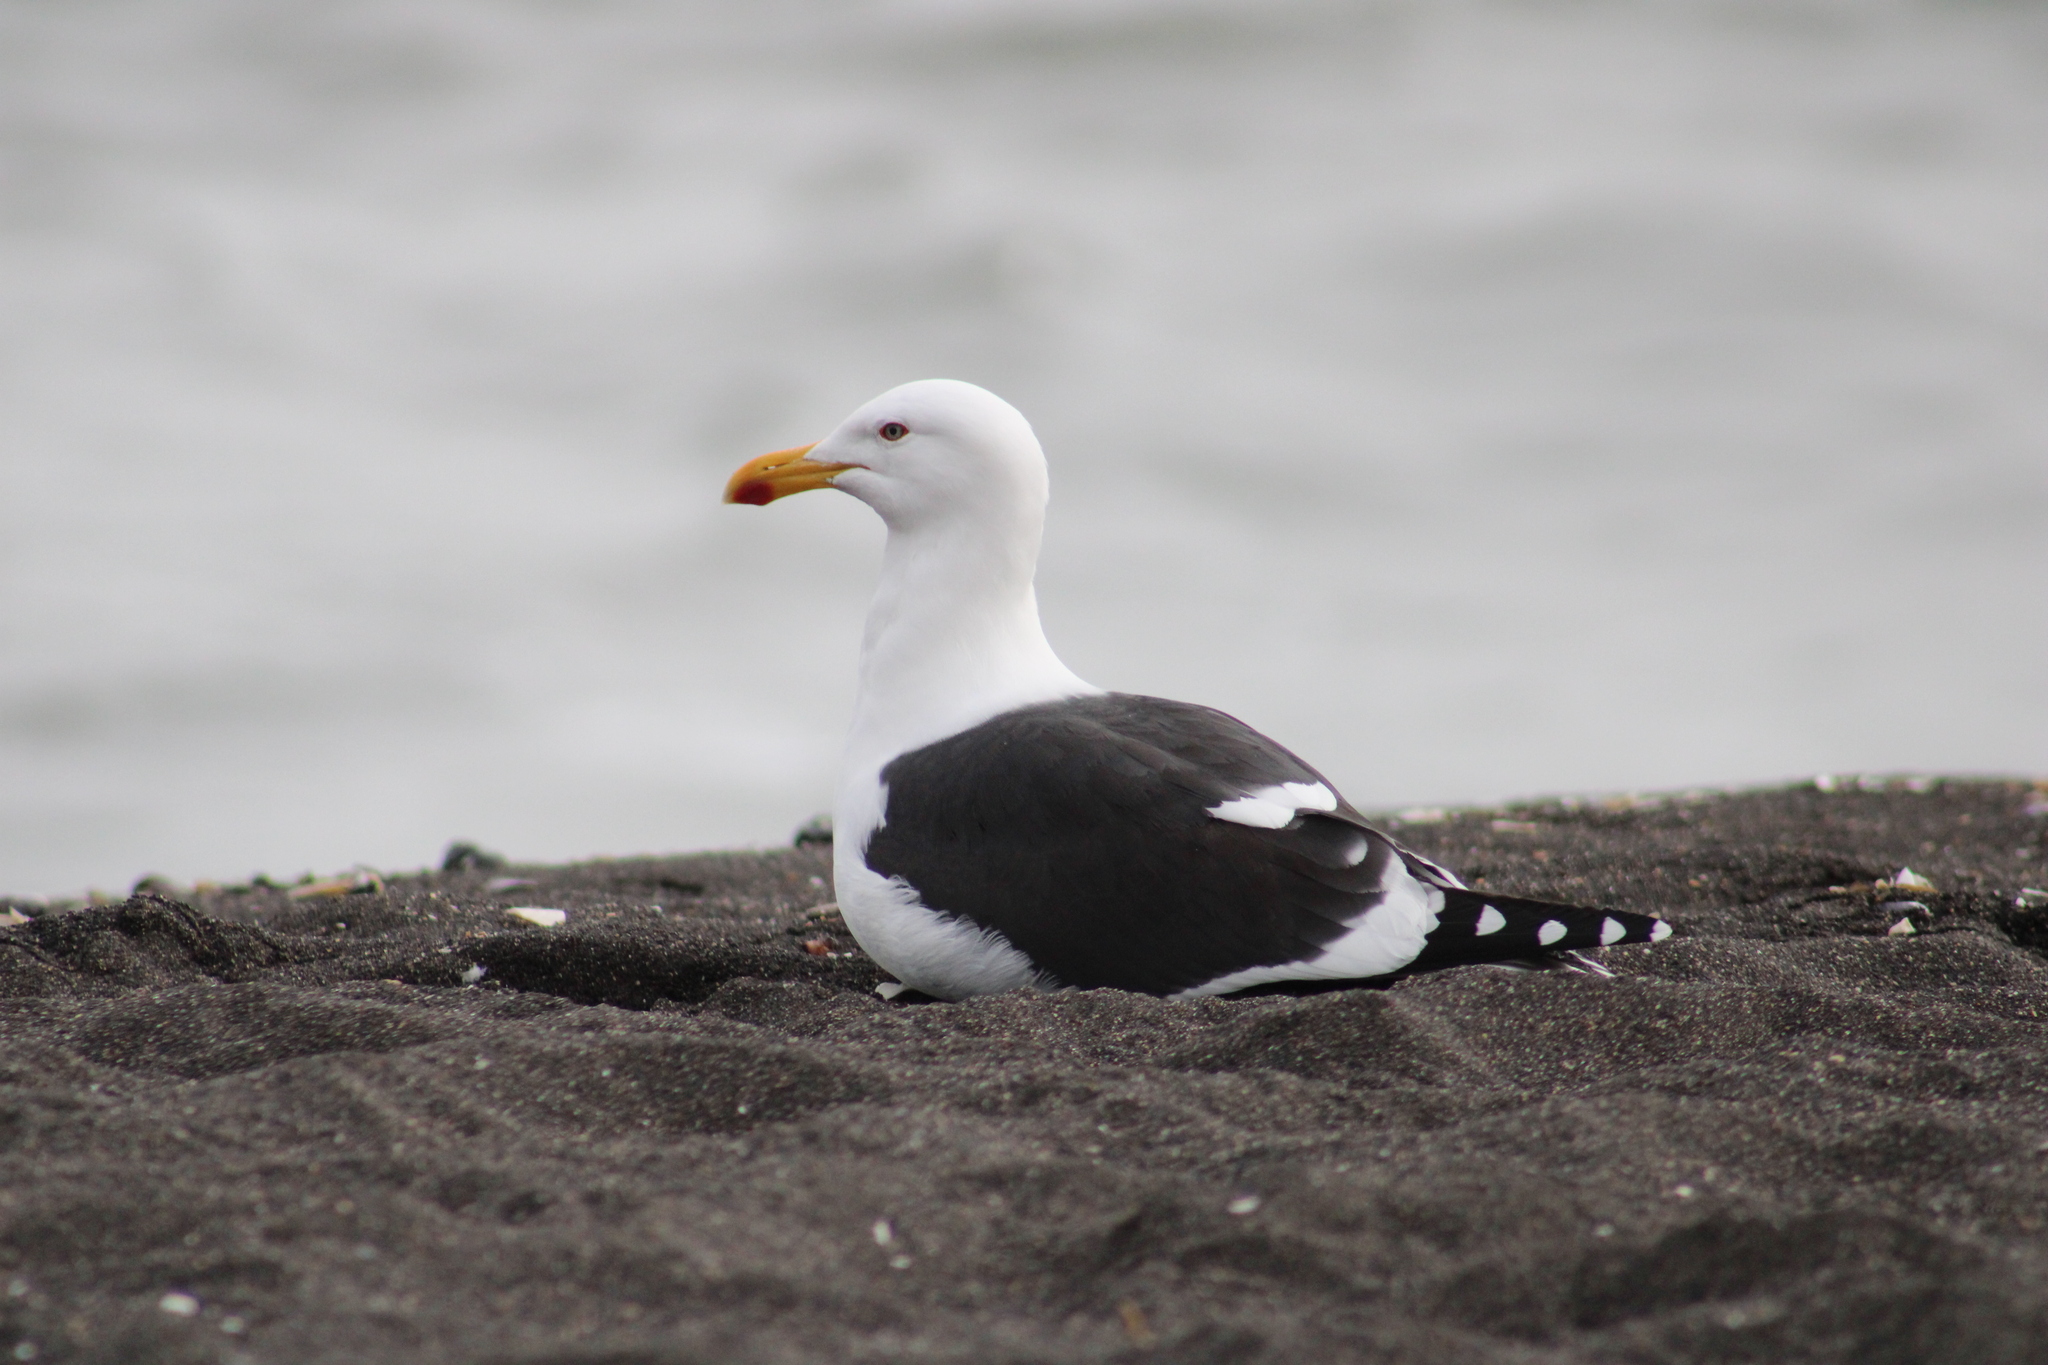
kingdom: Animalia
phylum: Chordata
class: Aves
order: Charadriiformes
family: Laridae
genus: Larus
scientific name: Larus dominicanus
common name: Kelp gull
